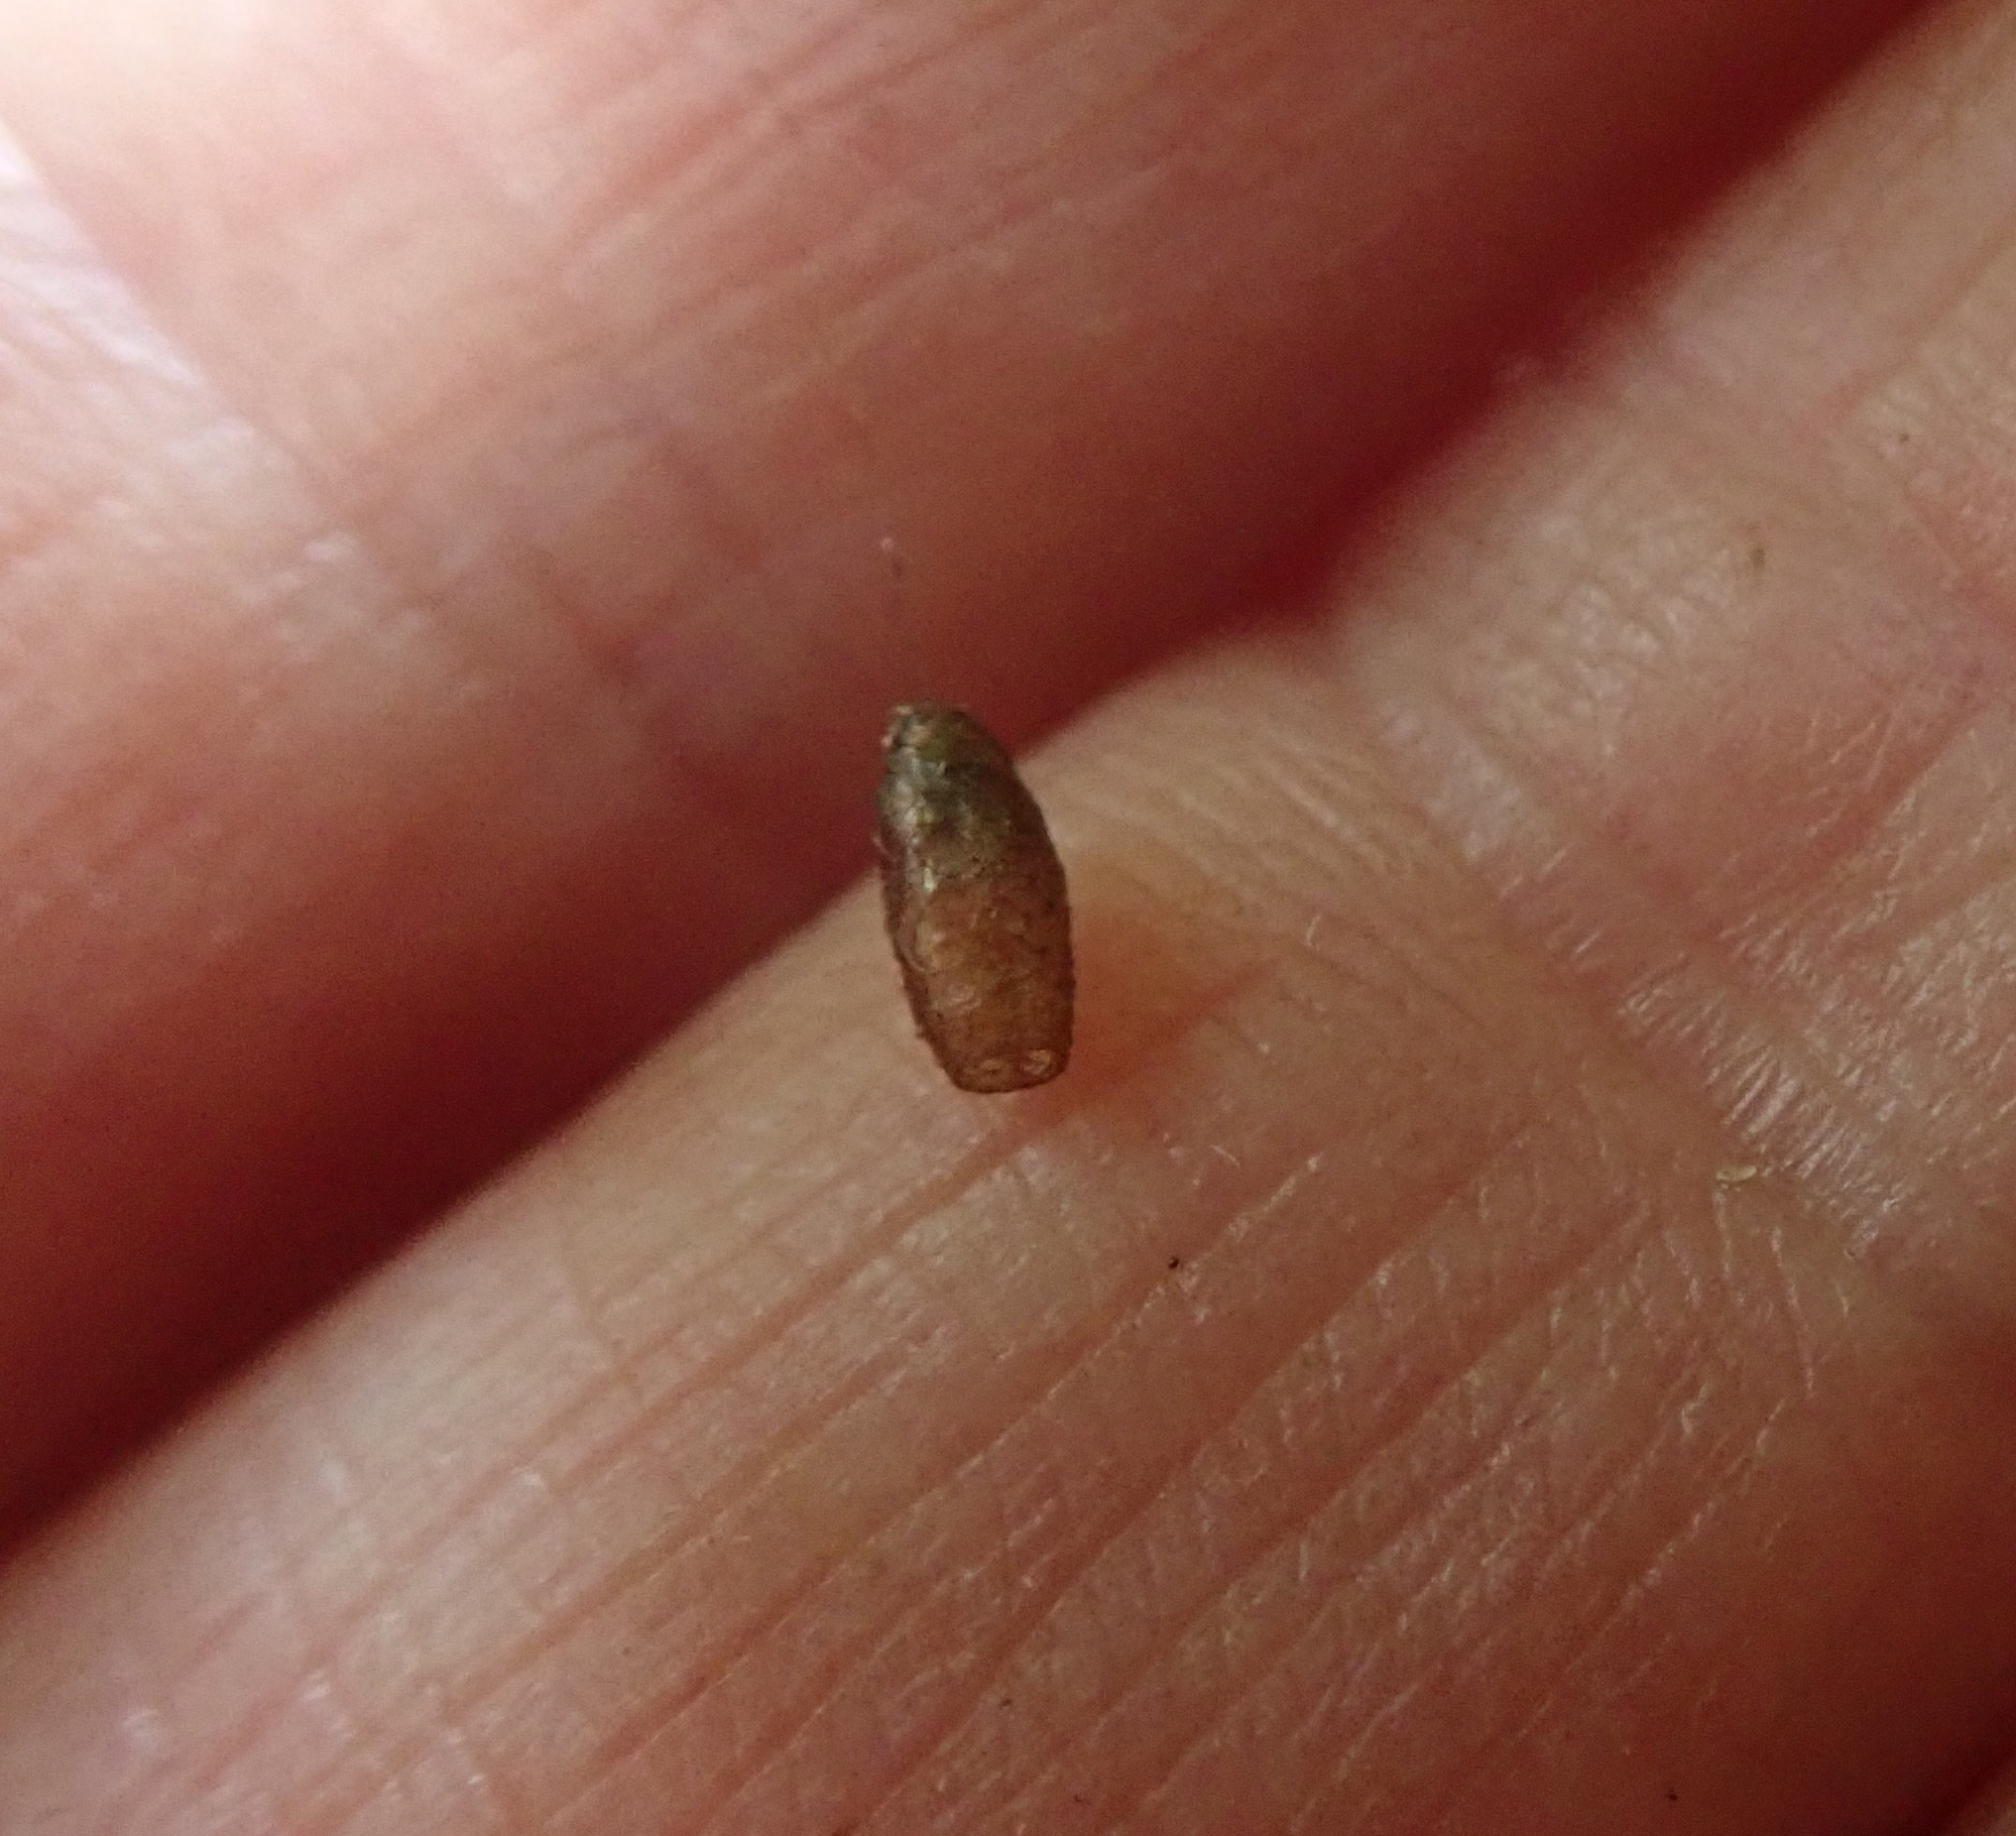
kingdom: Animalia
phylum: Arthropoda
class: Insecta
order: Hymenoptera
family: Braconidae
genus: Meteorus
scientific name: Meteorus pulchricornis
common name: Braconid wasp
